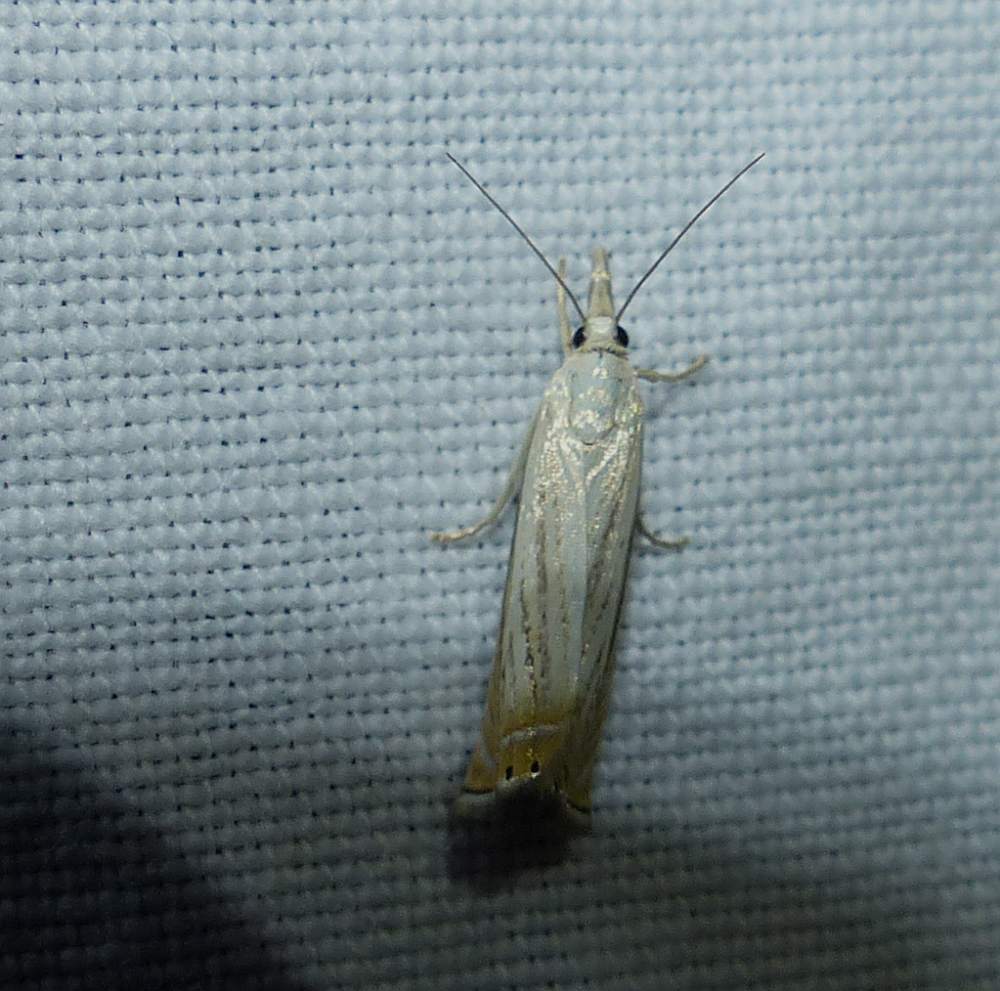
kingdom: Animalia
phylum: Arthropoda
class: Insecta
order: Lepidoptera
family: Crambidae
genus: Chrysoteuchia
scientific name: Chrysoteuchia topiarius
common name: Topiary grass-veneer
